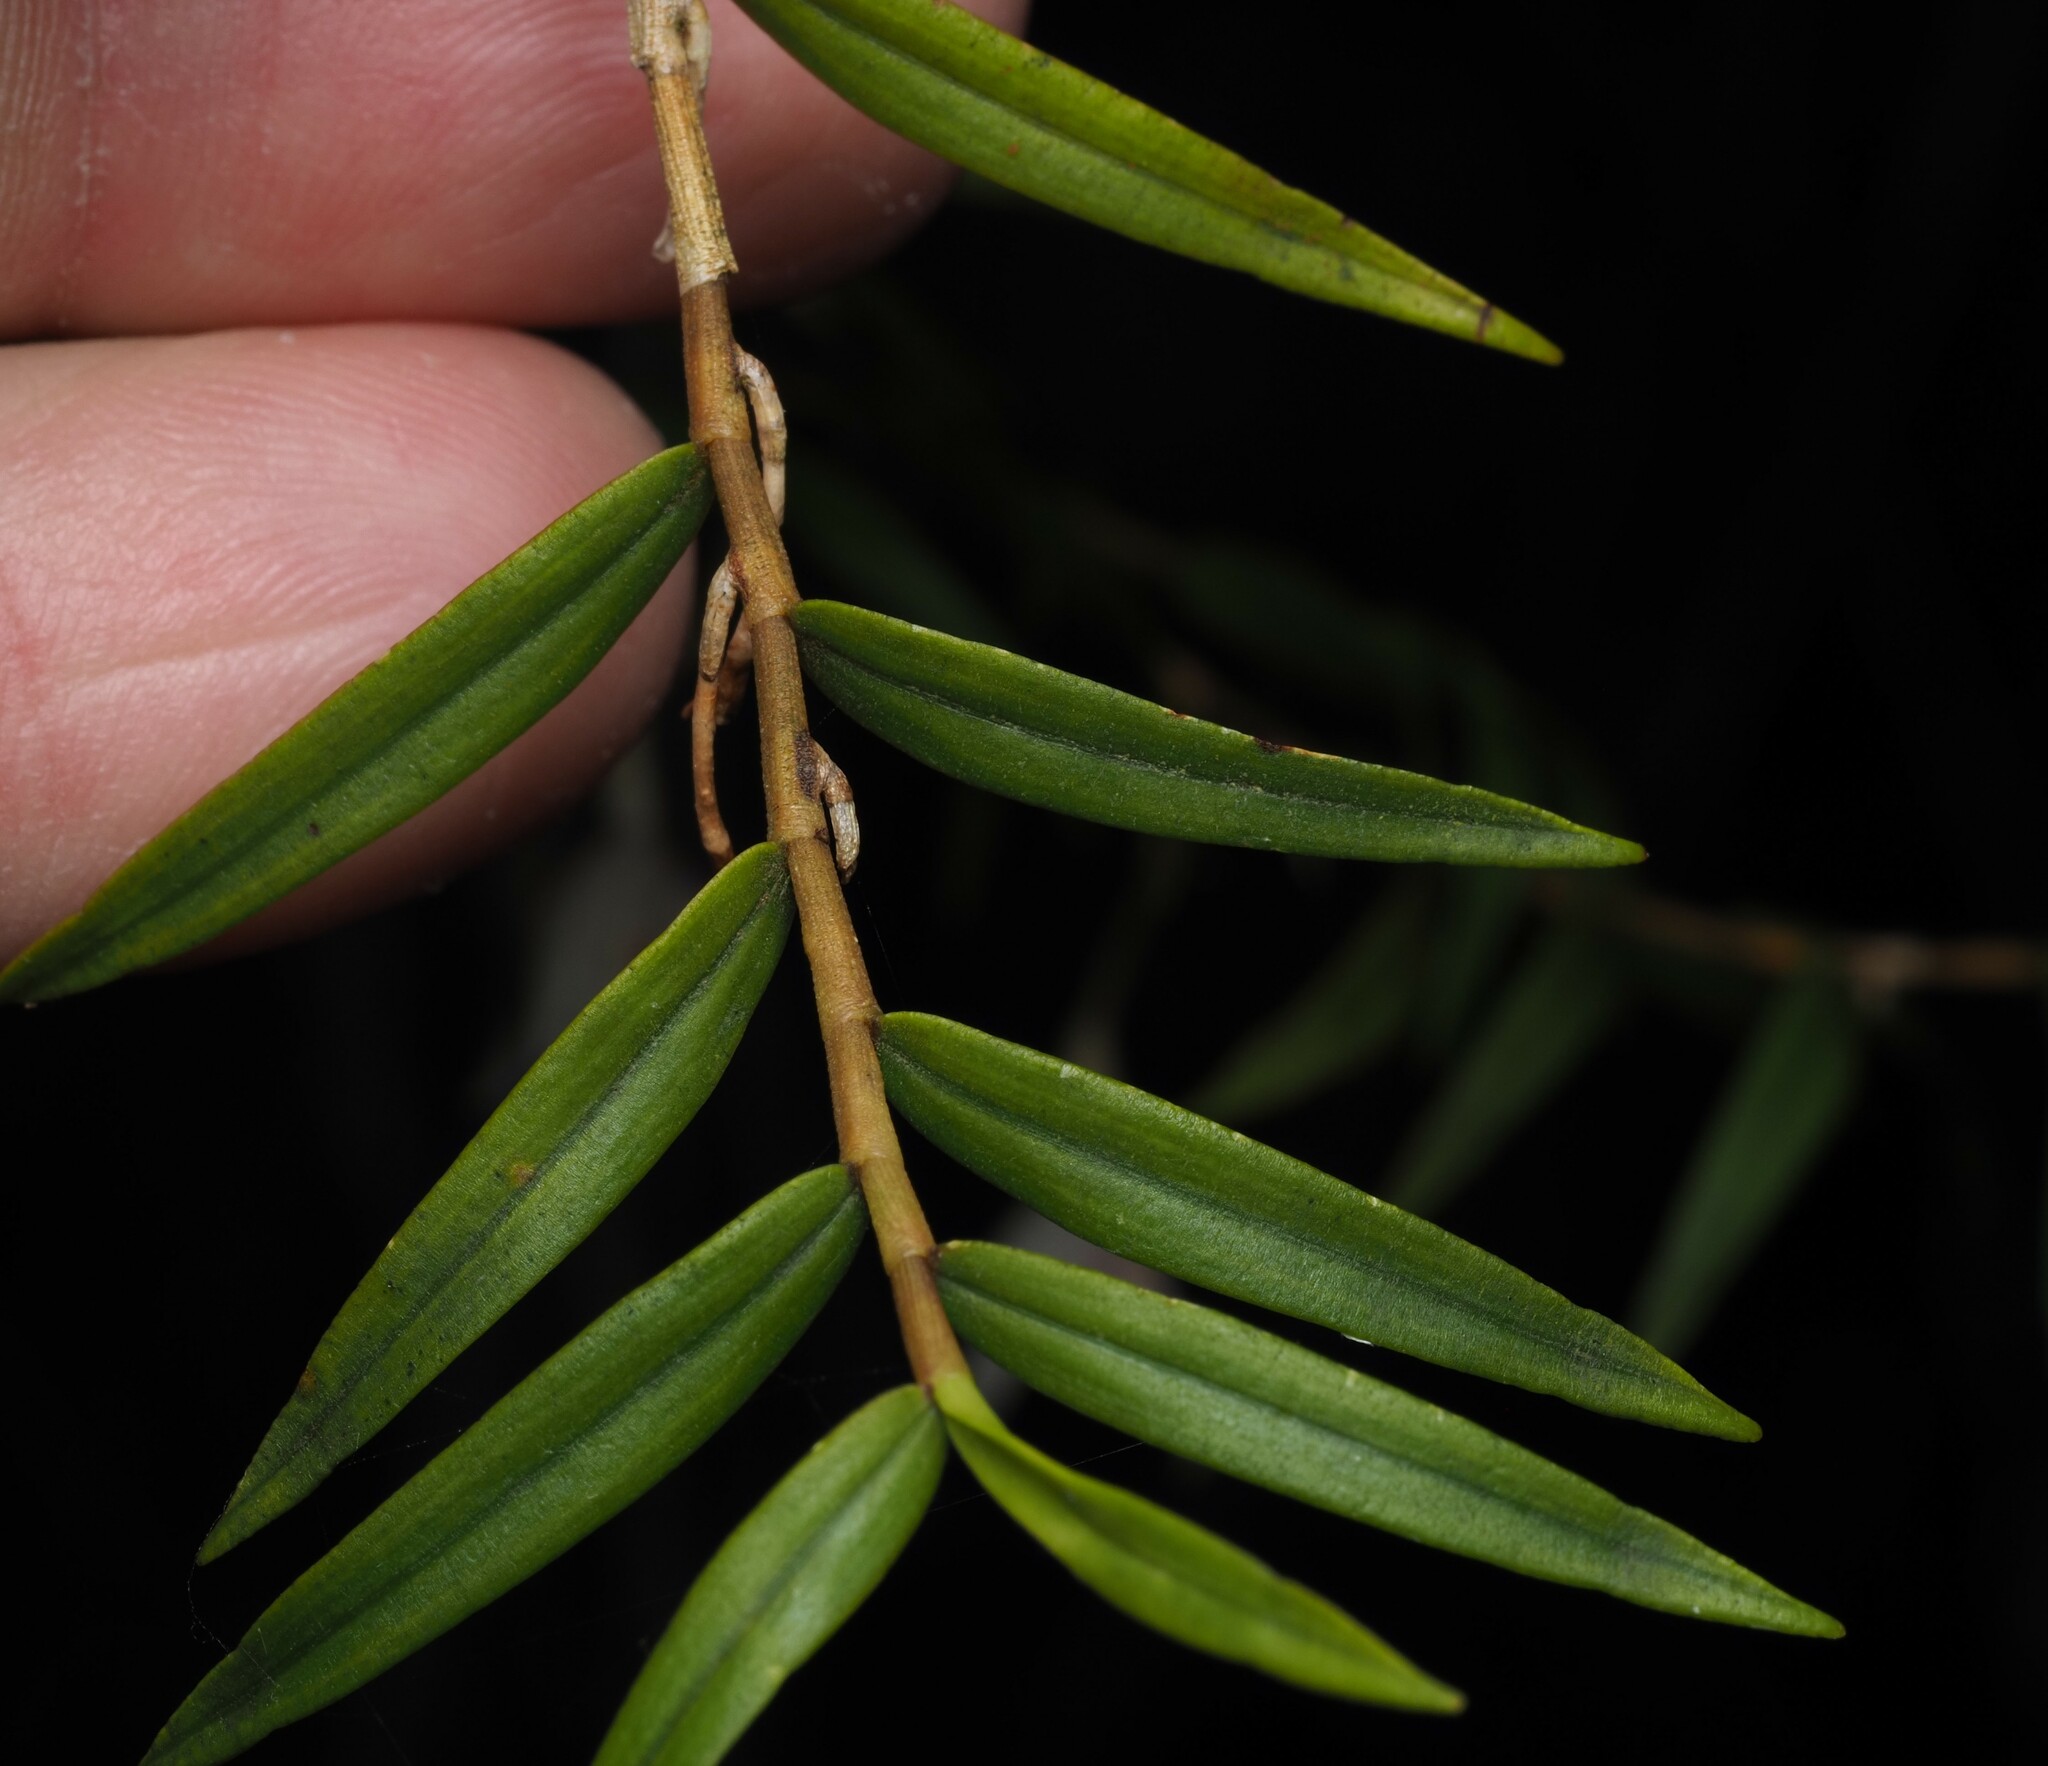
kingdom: Plantae
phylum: Tracheophyta
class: Liliopsida
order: Asparagales
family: Orchidaceae
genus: Dendrobium
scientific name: Dendrobium cunninghamii
